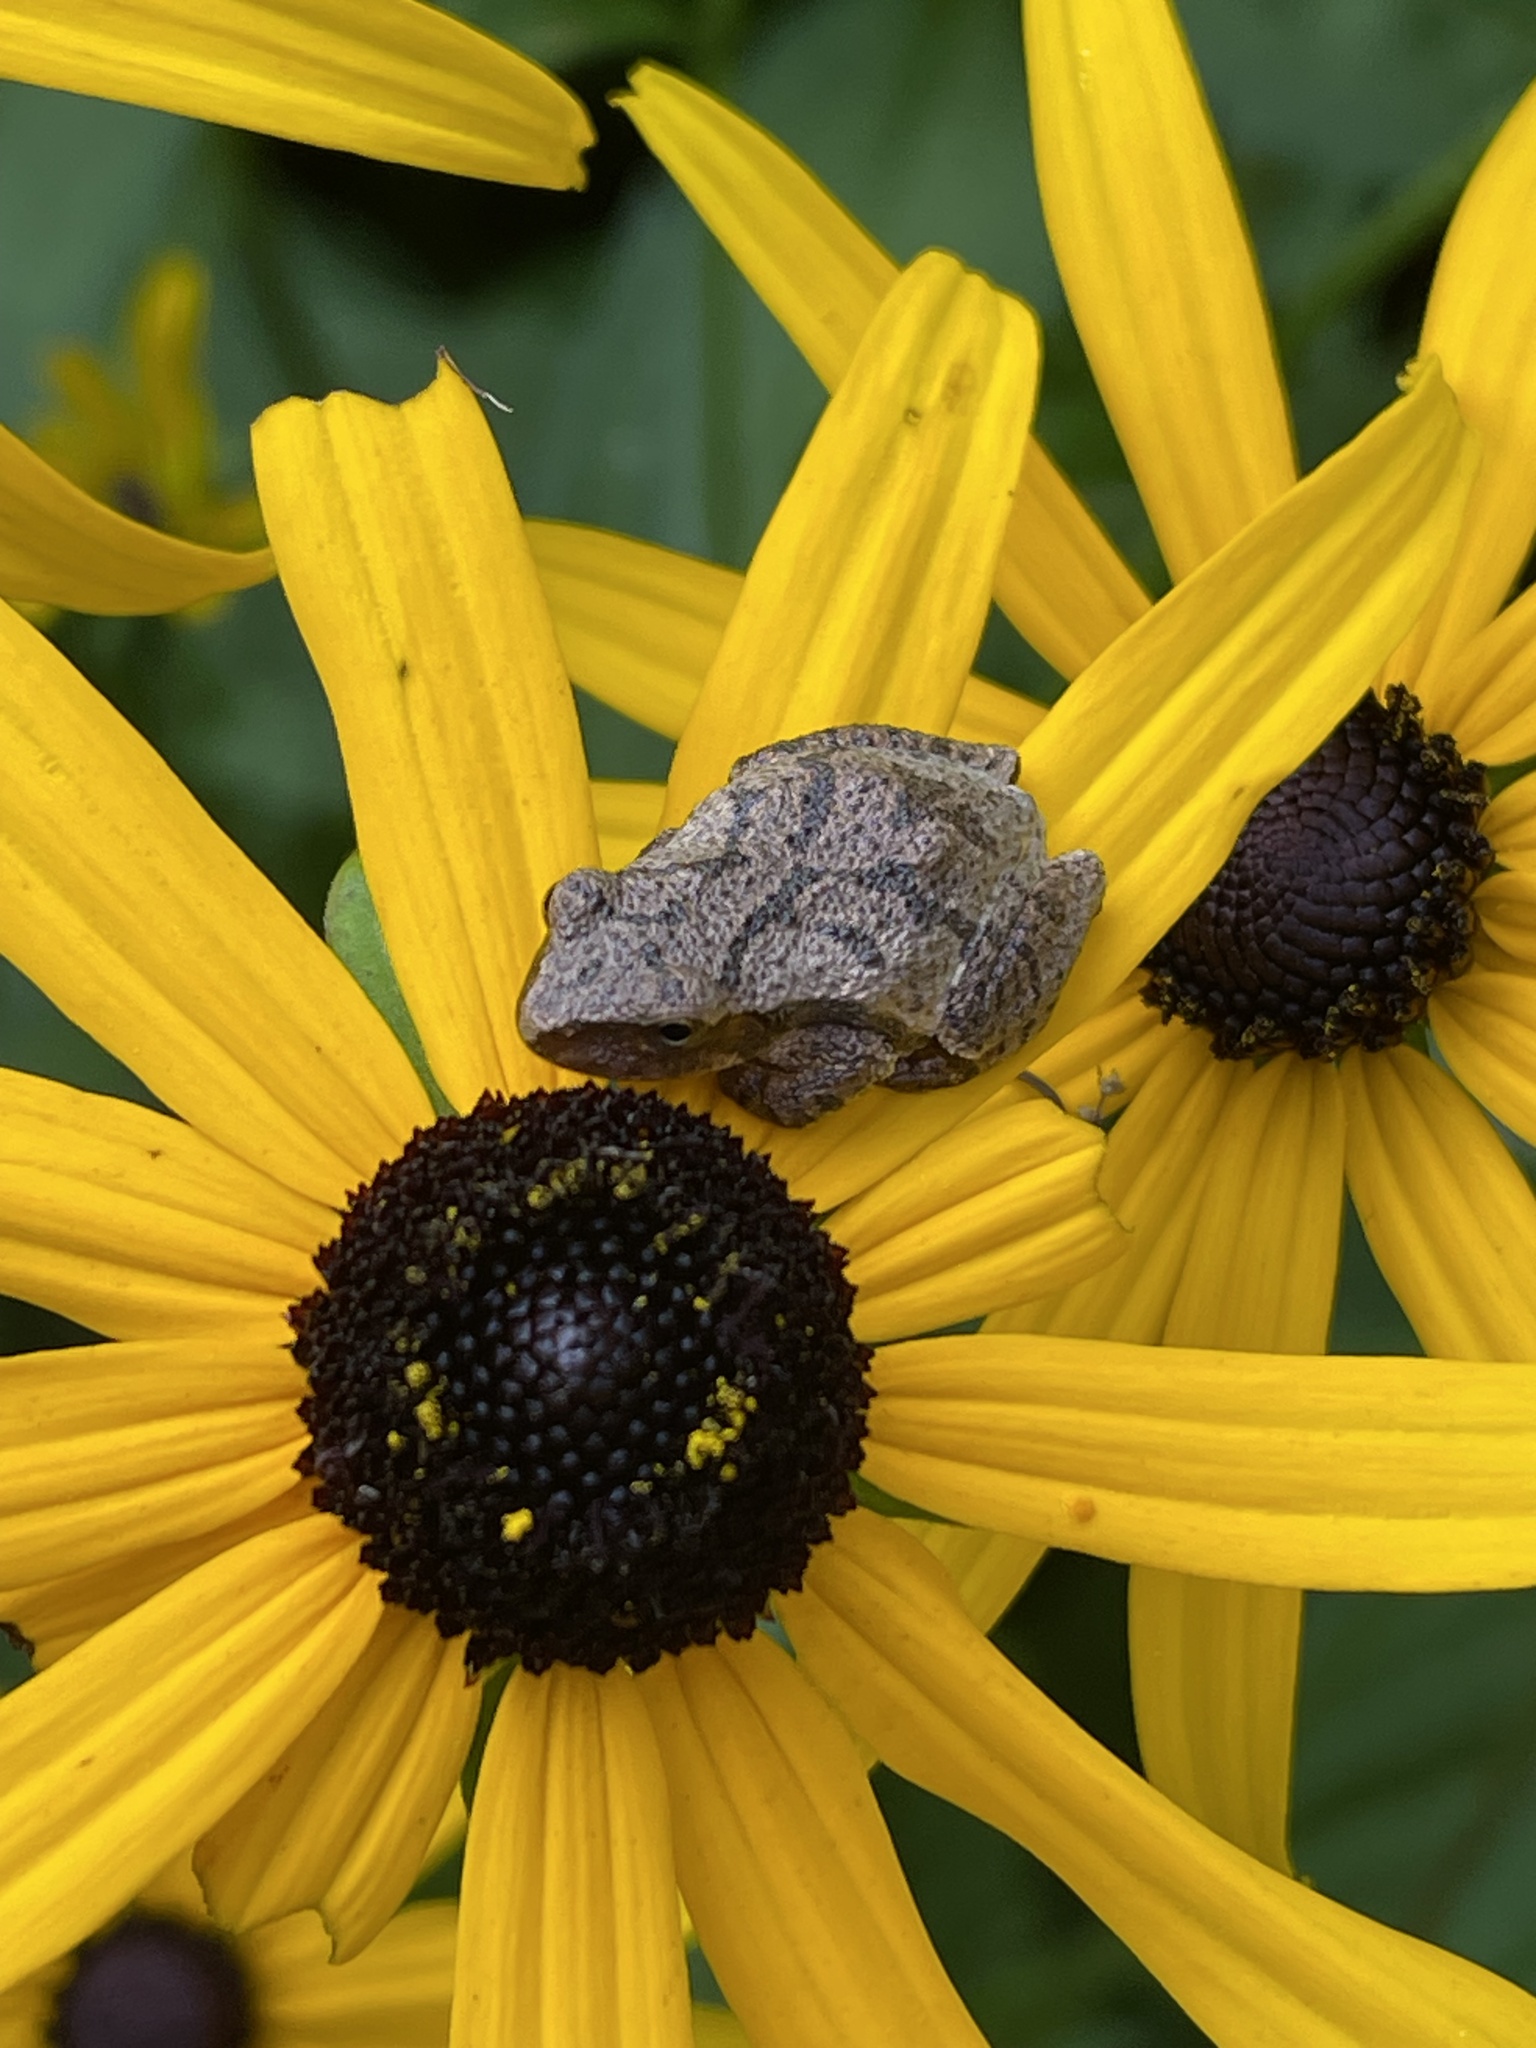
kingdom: Animalia
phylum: Chordata
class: Amphibia
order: Anura
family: Hylidae
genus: Pseudacris
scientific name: Pseudacris crucifer
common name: Spring peeper
